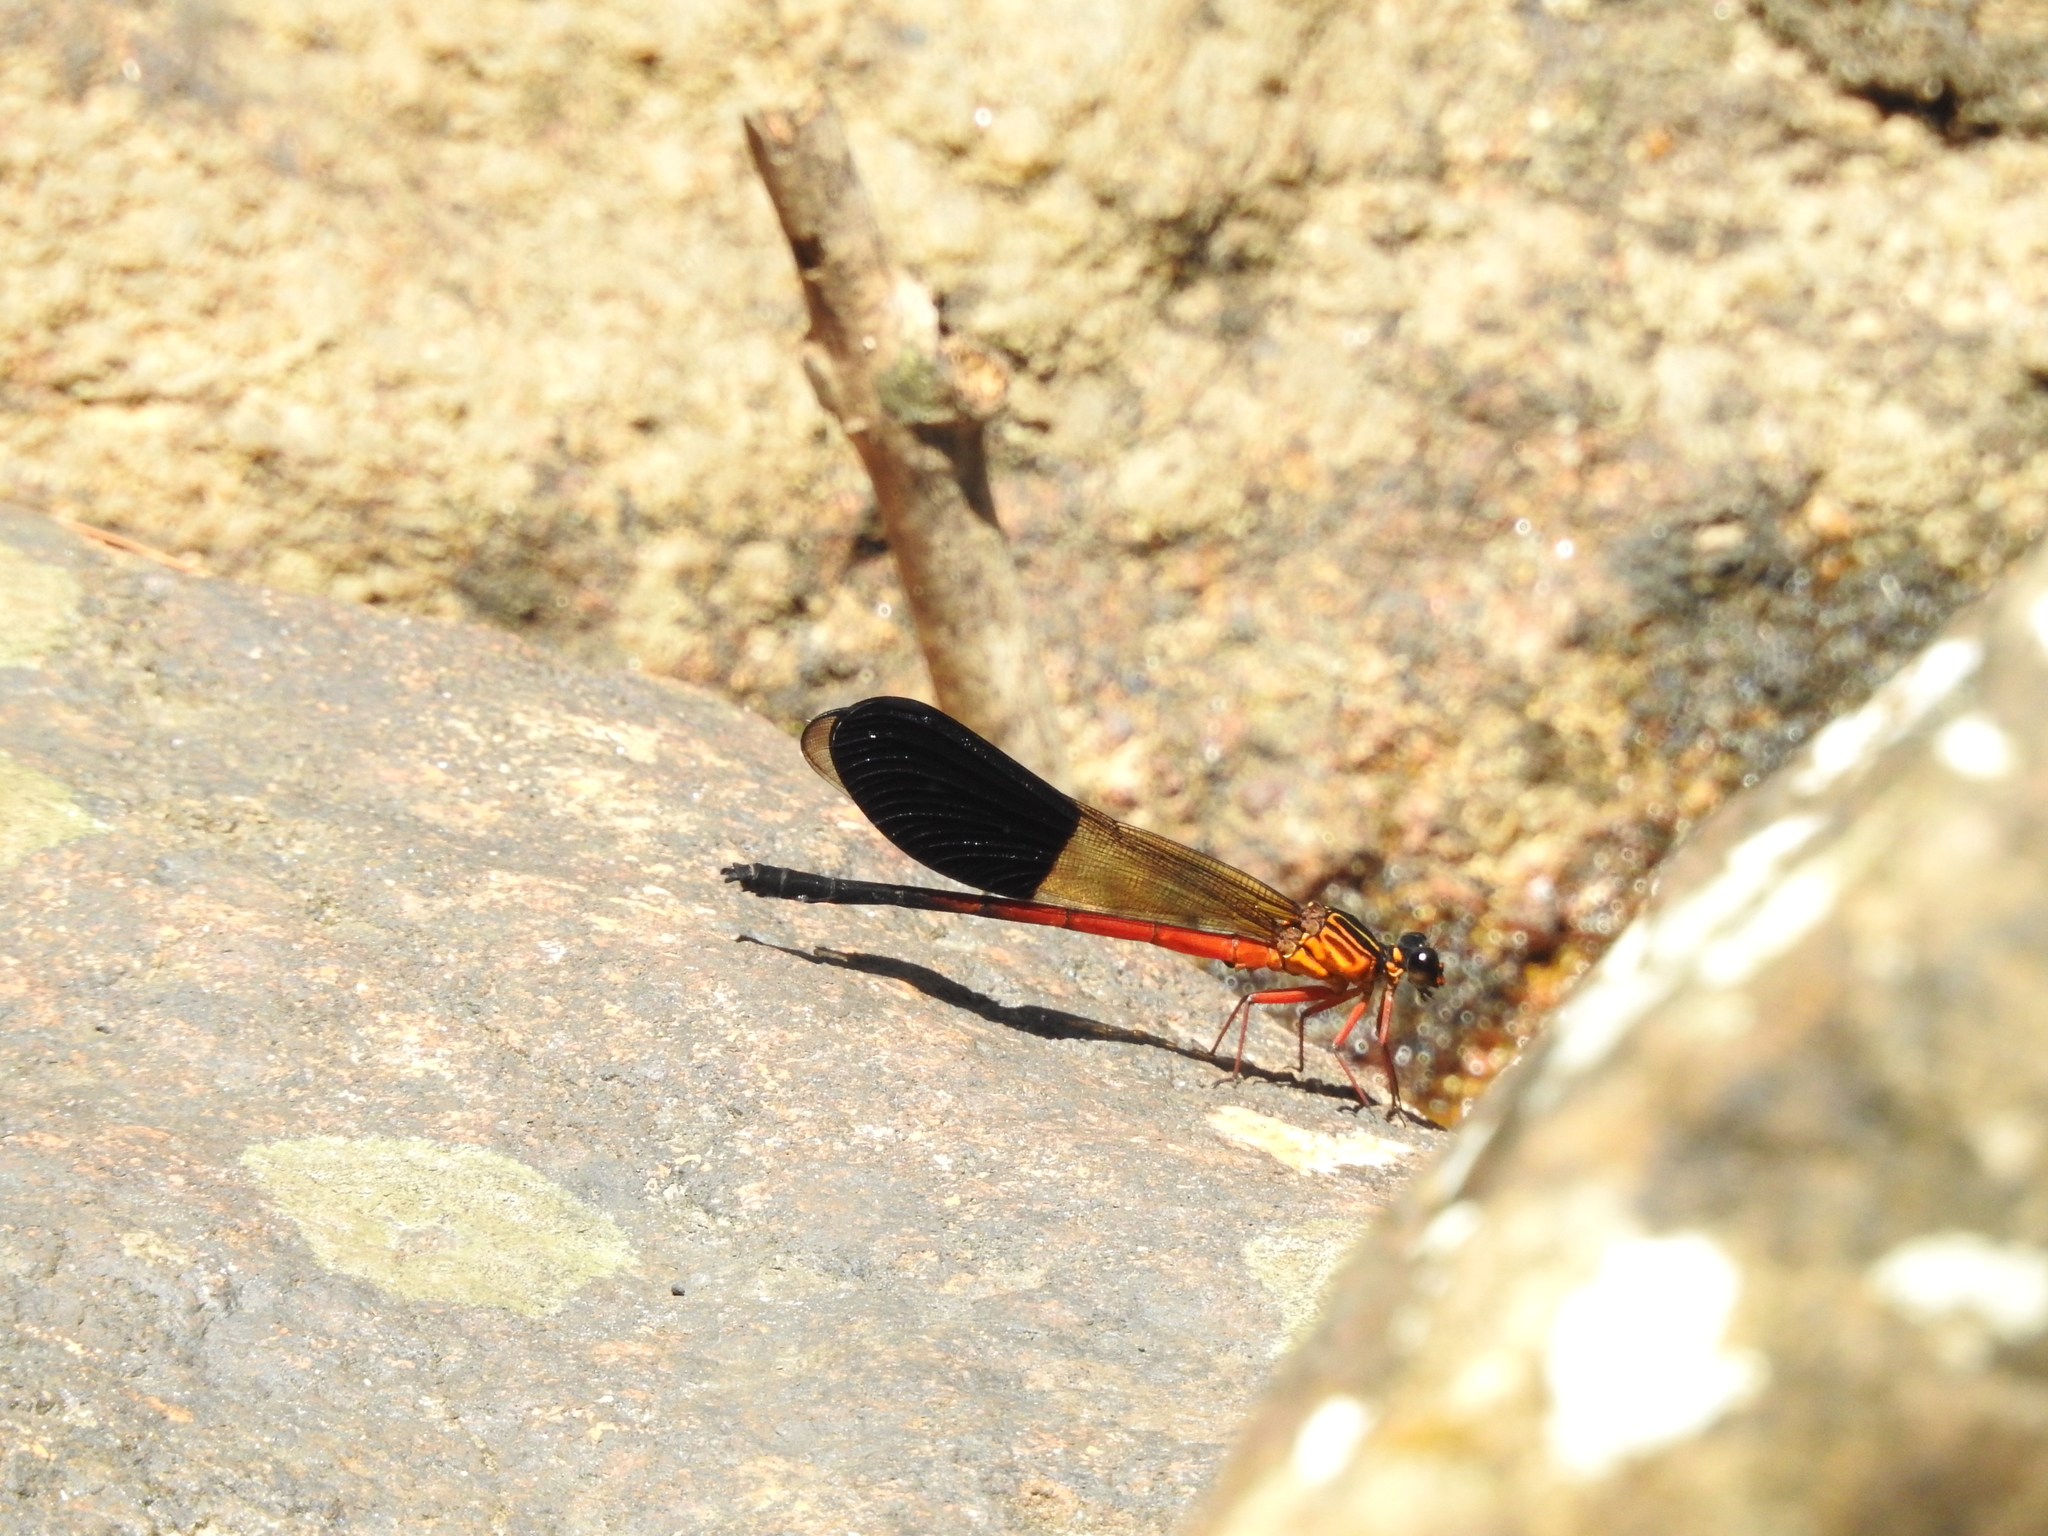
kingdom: Animalia
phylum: Arthropoda
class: Insecta
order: Odonata
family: Euphaeidae
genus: Euphaea
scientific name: Euphaea cardinalis
